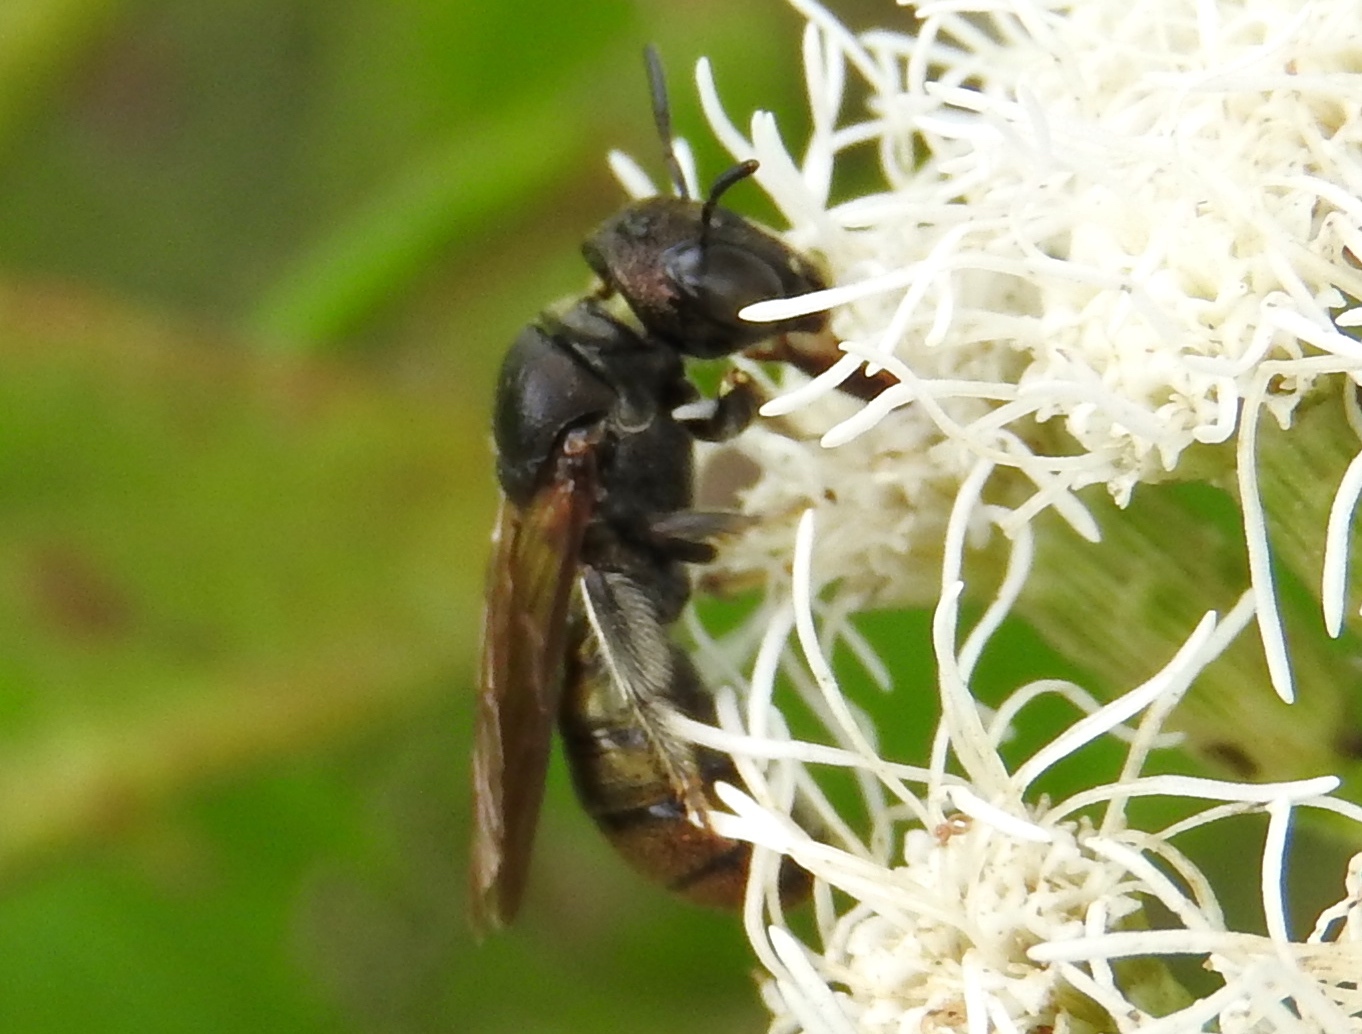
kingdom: Animalia
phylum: Arthropoda
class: Insecta
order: Hymenoptera
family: Apidae
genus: Ceratina
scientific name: Ceratina
